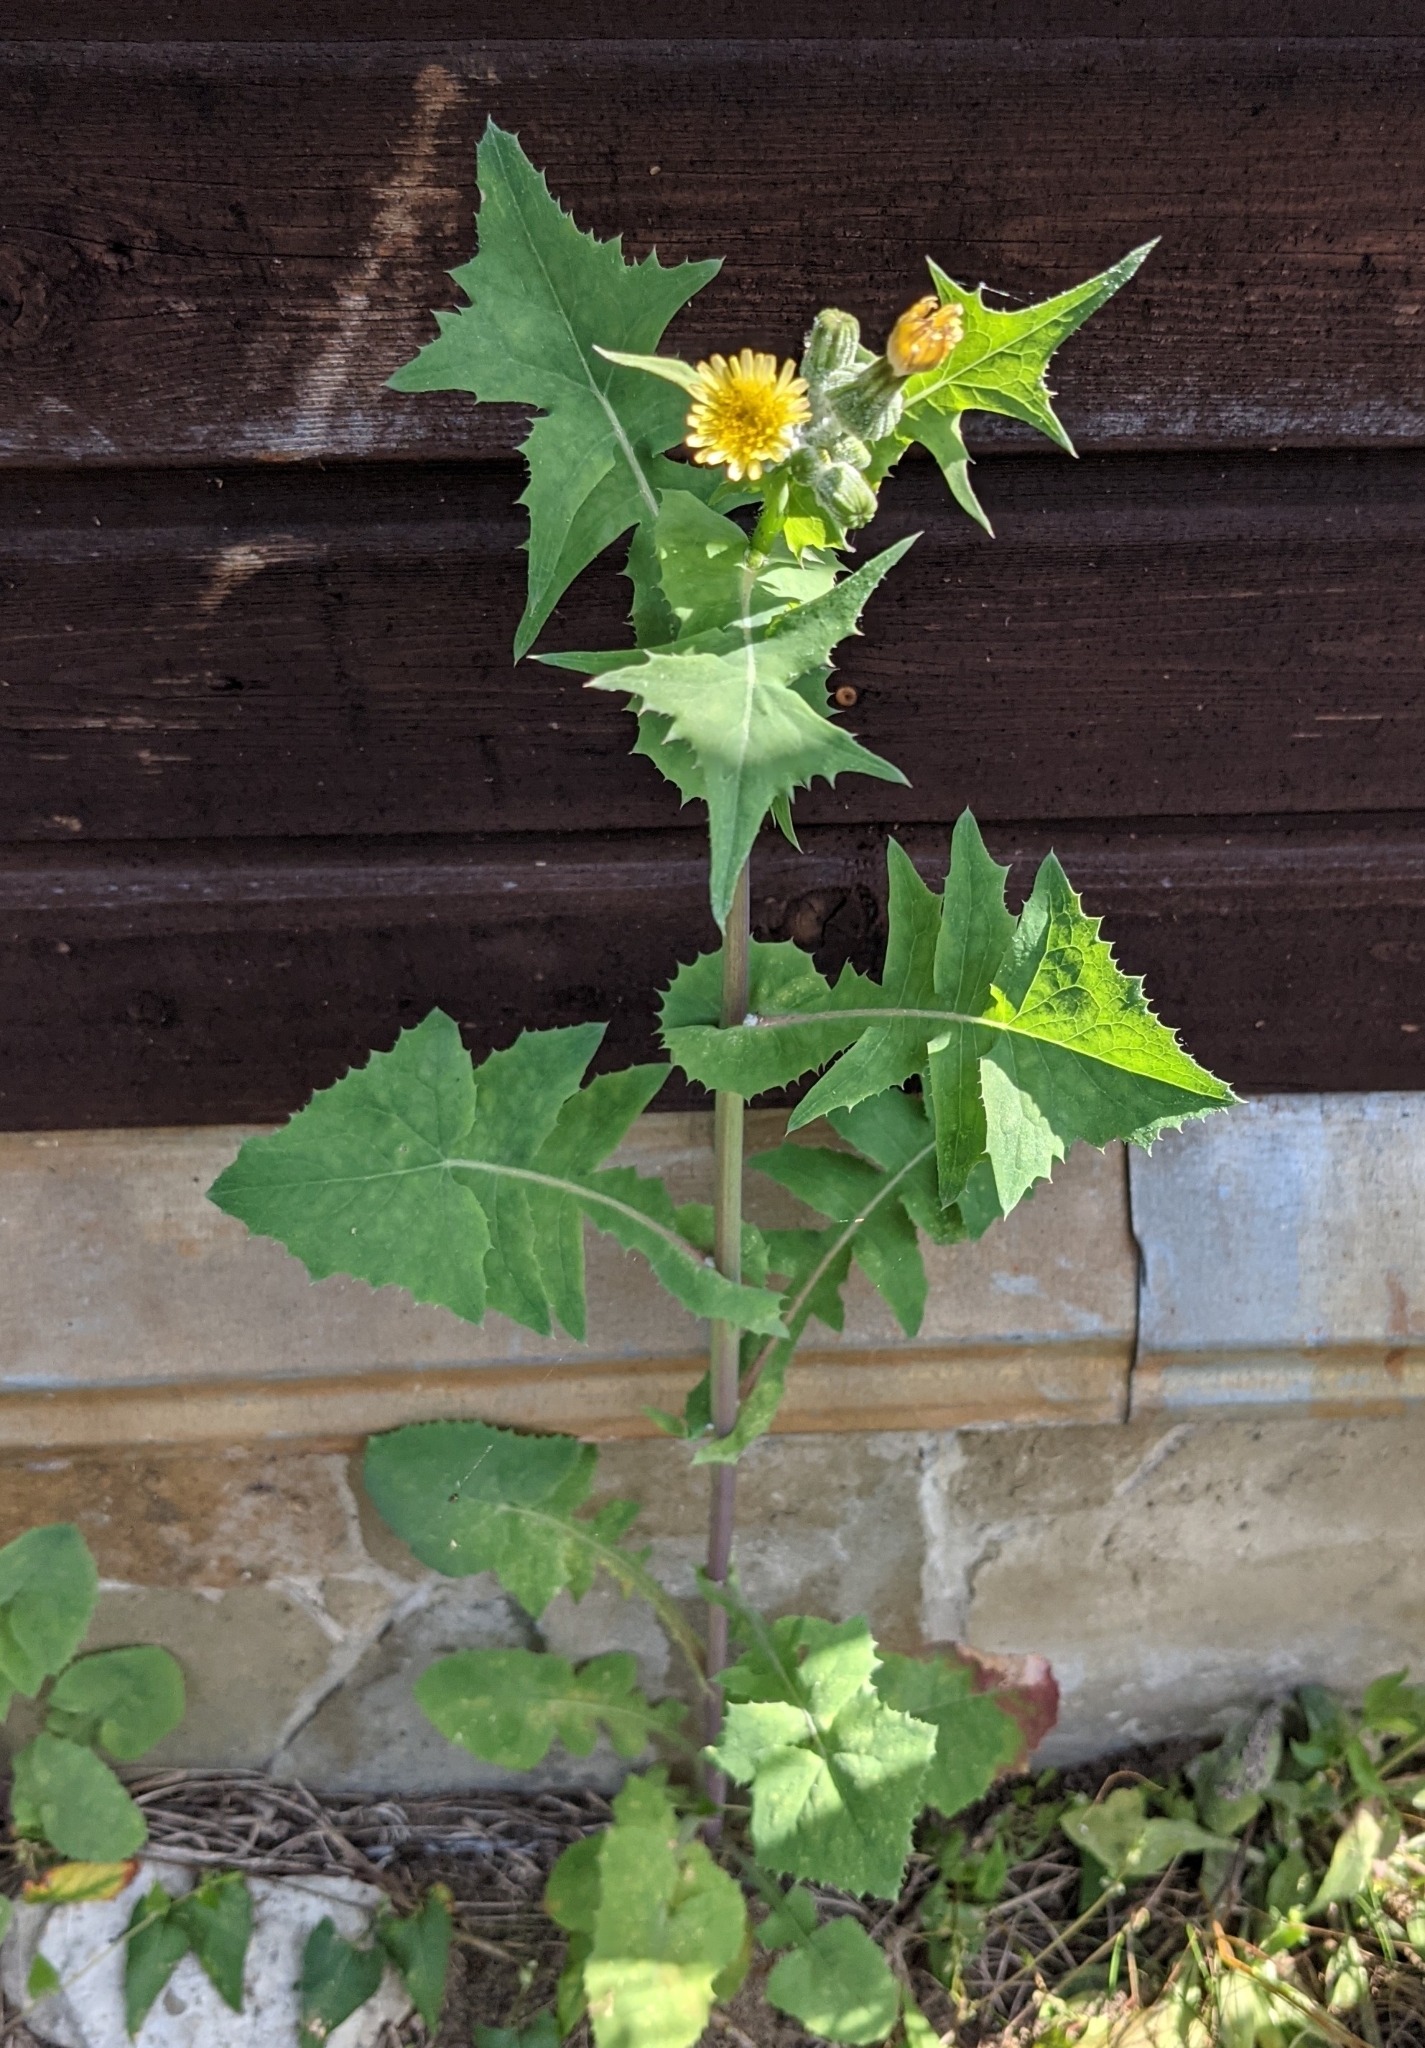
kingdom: Plantae
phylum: Tracheophyta
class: Magnoliopsida
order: Asterales
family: Asteraceae
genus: Sonchus
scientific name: Sonchus oleraceus
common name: Common sowthistle
